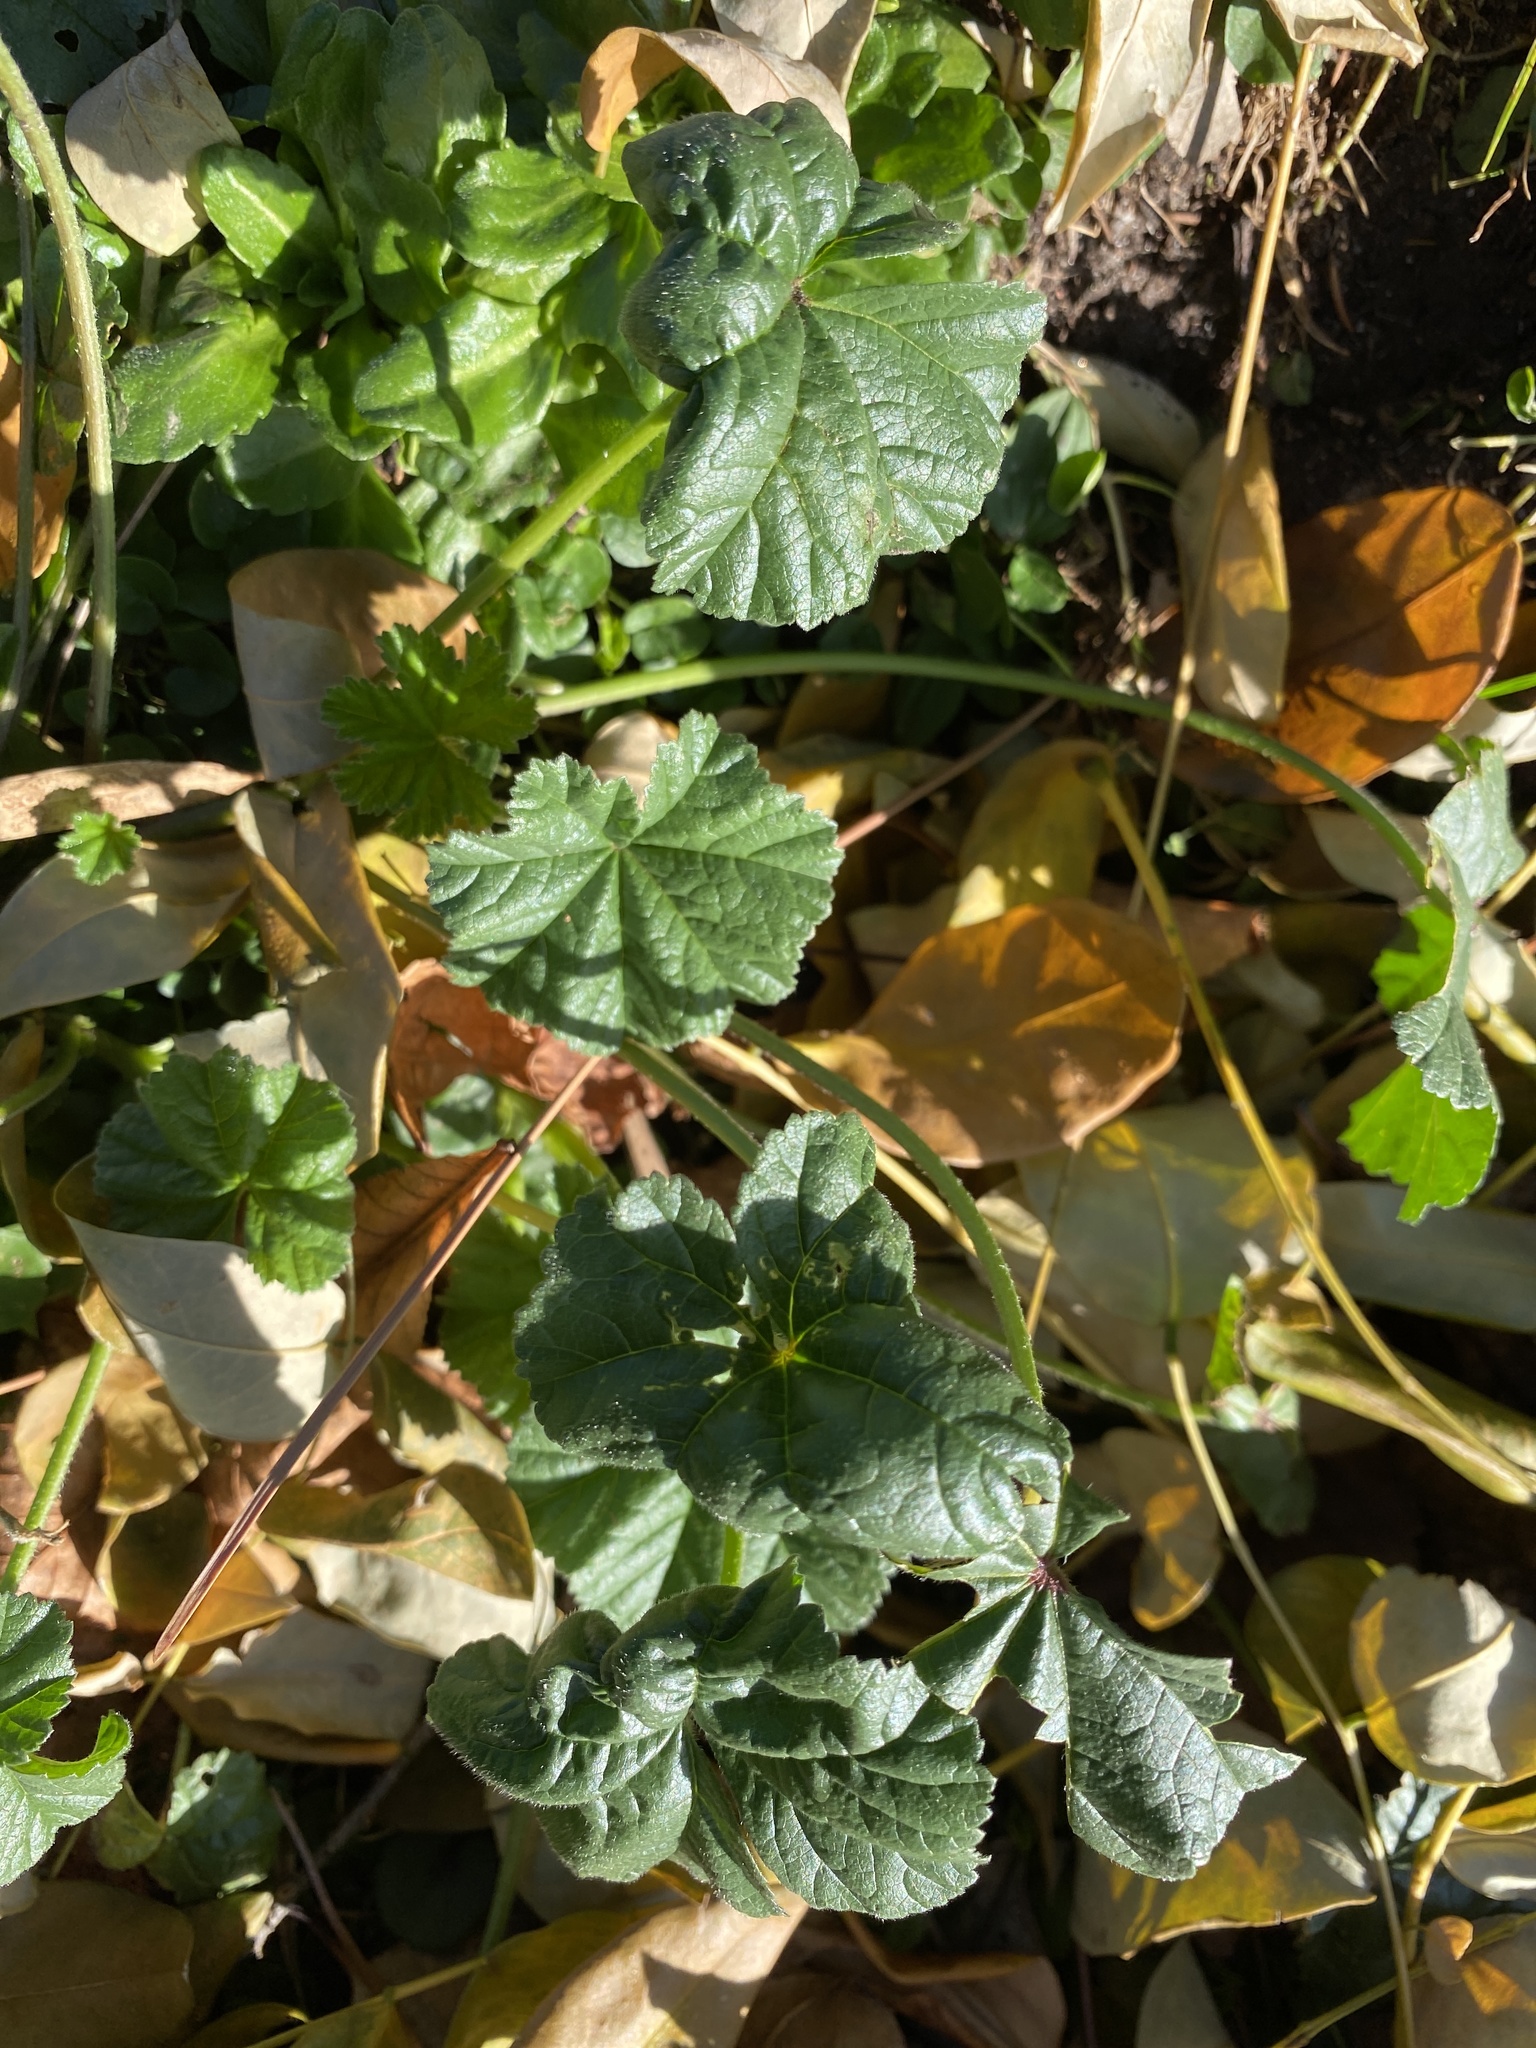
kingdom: Plantae
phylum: Tracheophyta
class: Magnoliopsida
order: Malvales
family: Malvaceae
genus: Malva
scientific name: Malva sylvestris
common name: Common mallow
